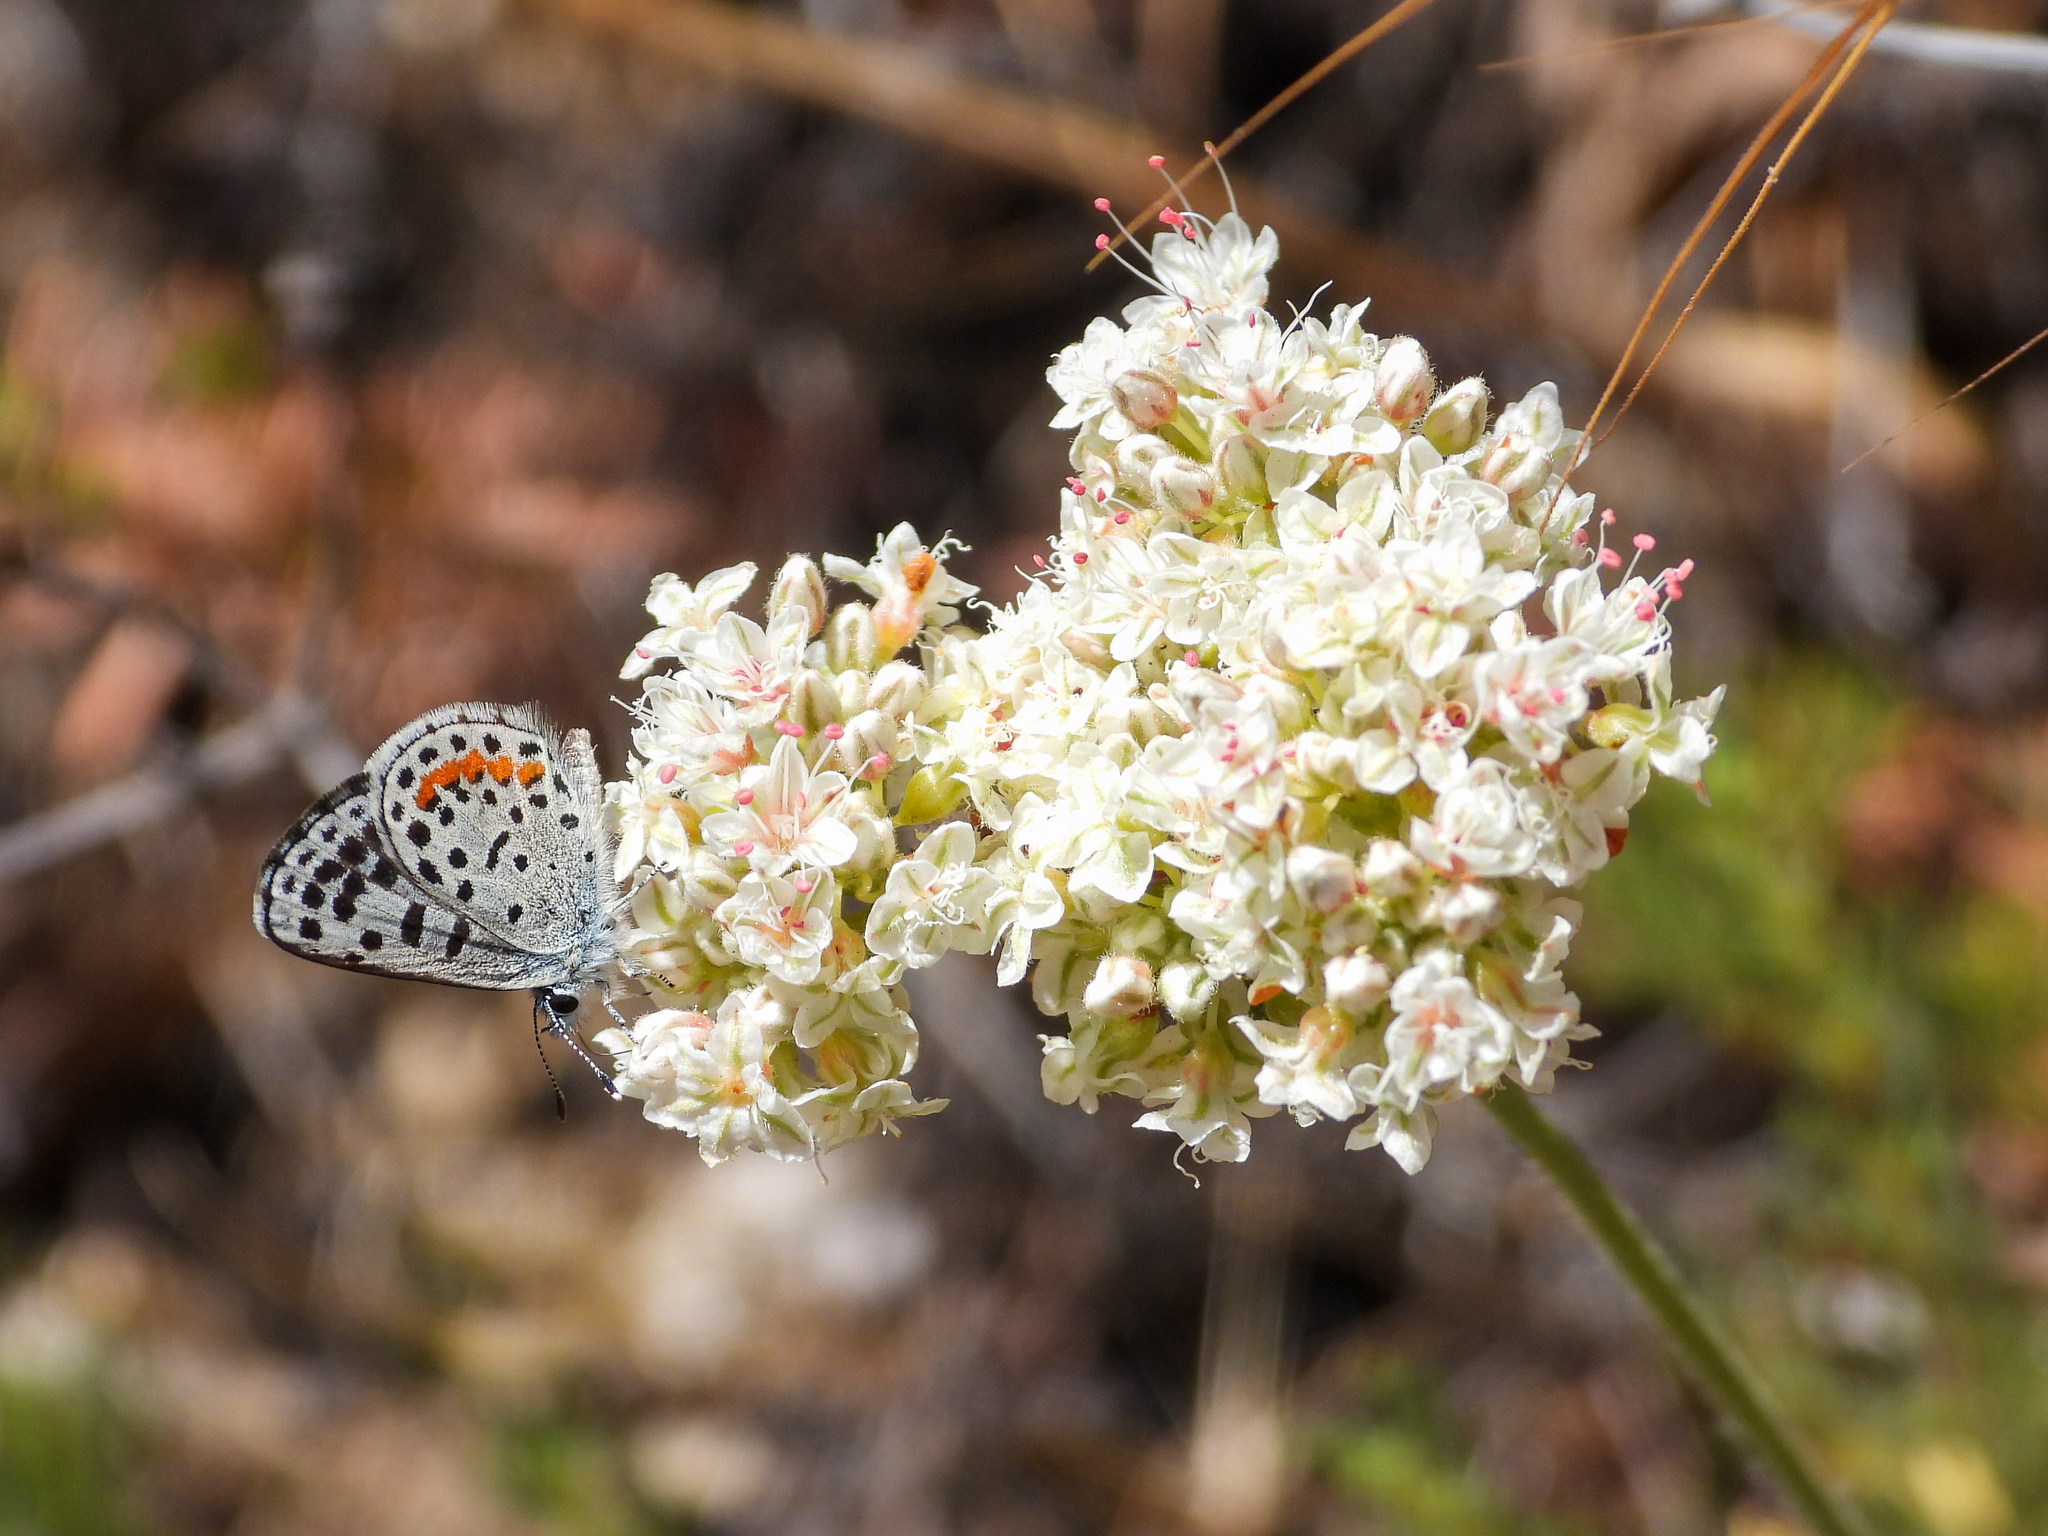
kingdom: Animalia
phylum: Arthropoda
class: Insecta
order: Lepidoptera
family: Lycaenidae
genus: Philotes
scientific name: Philotes bernardino
